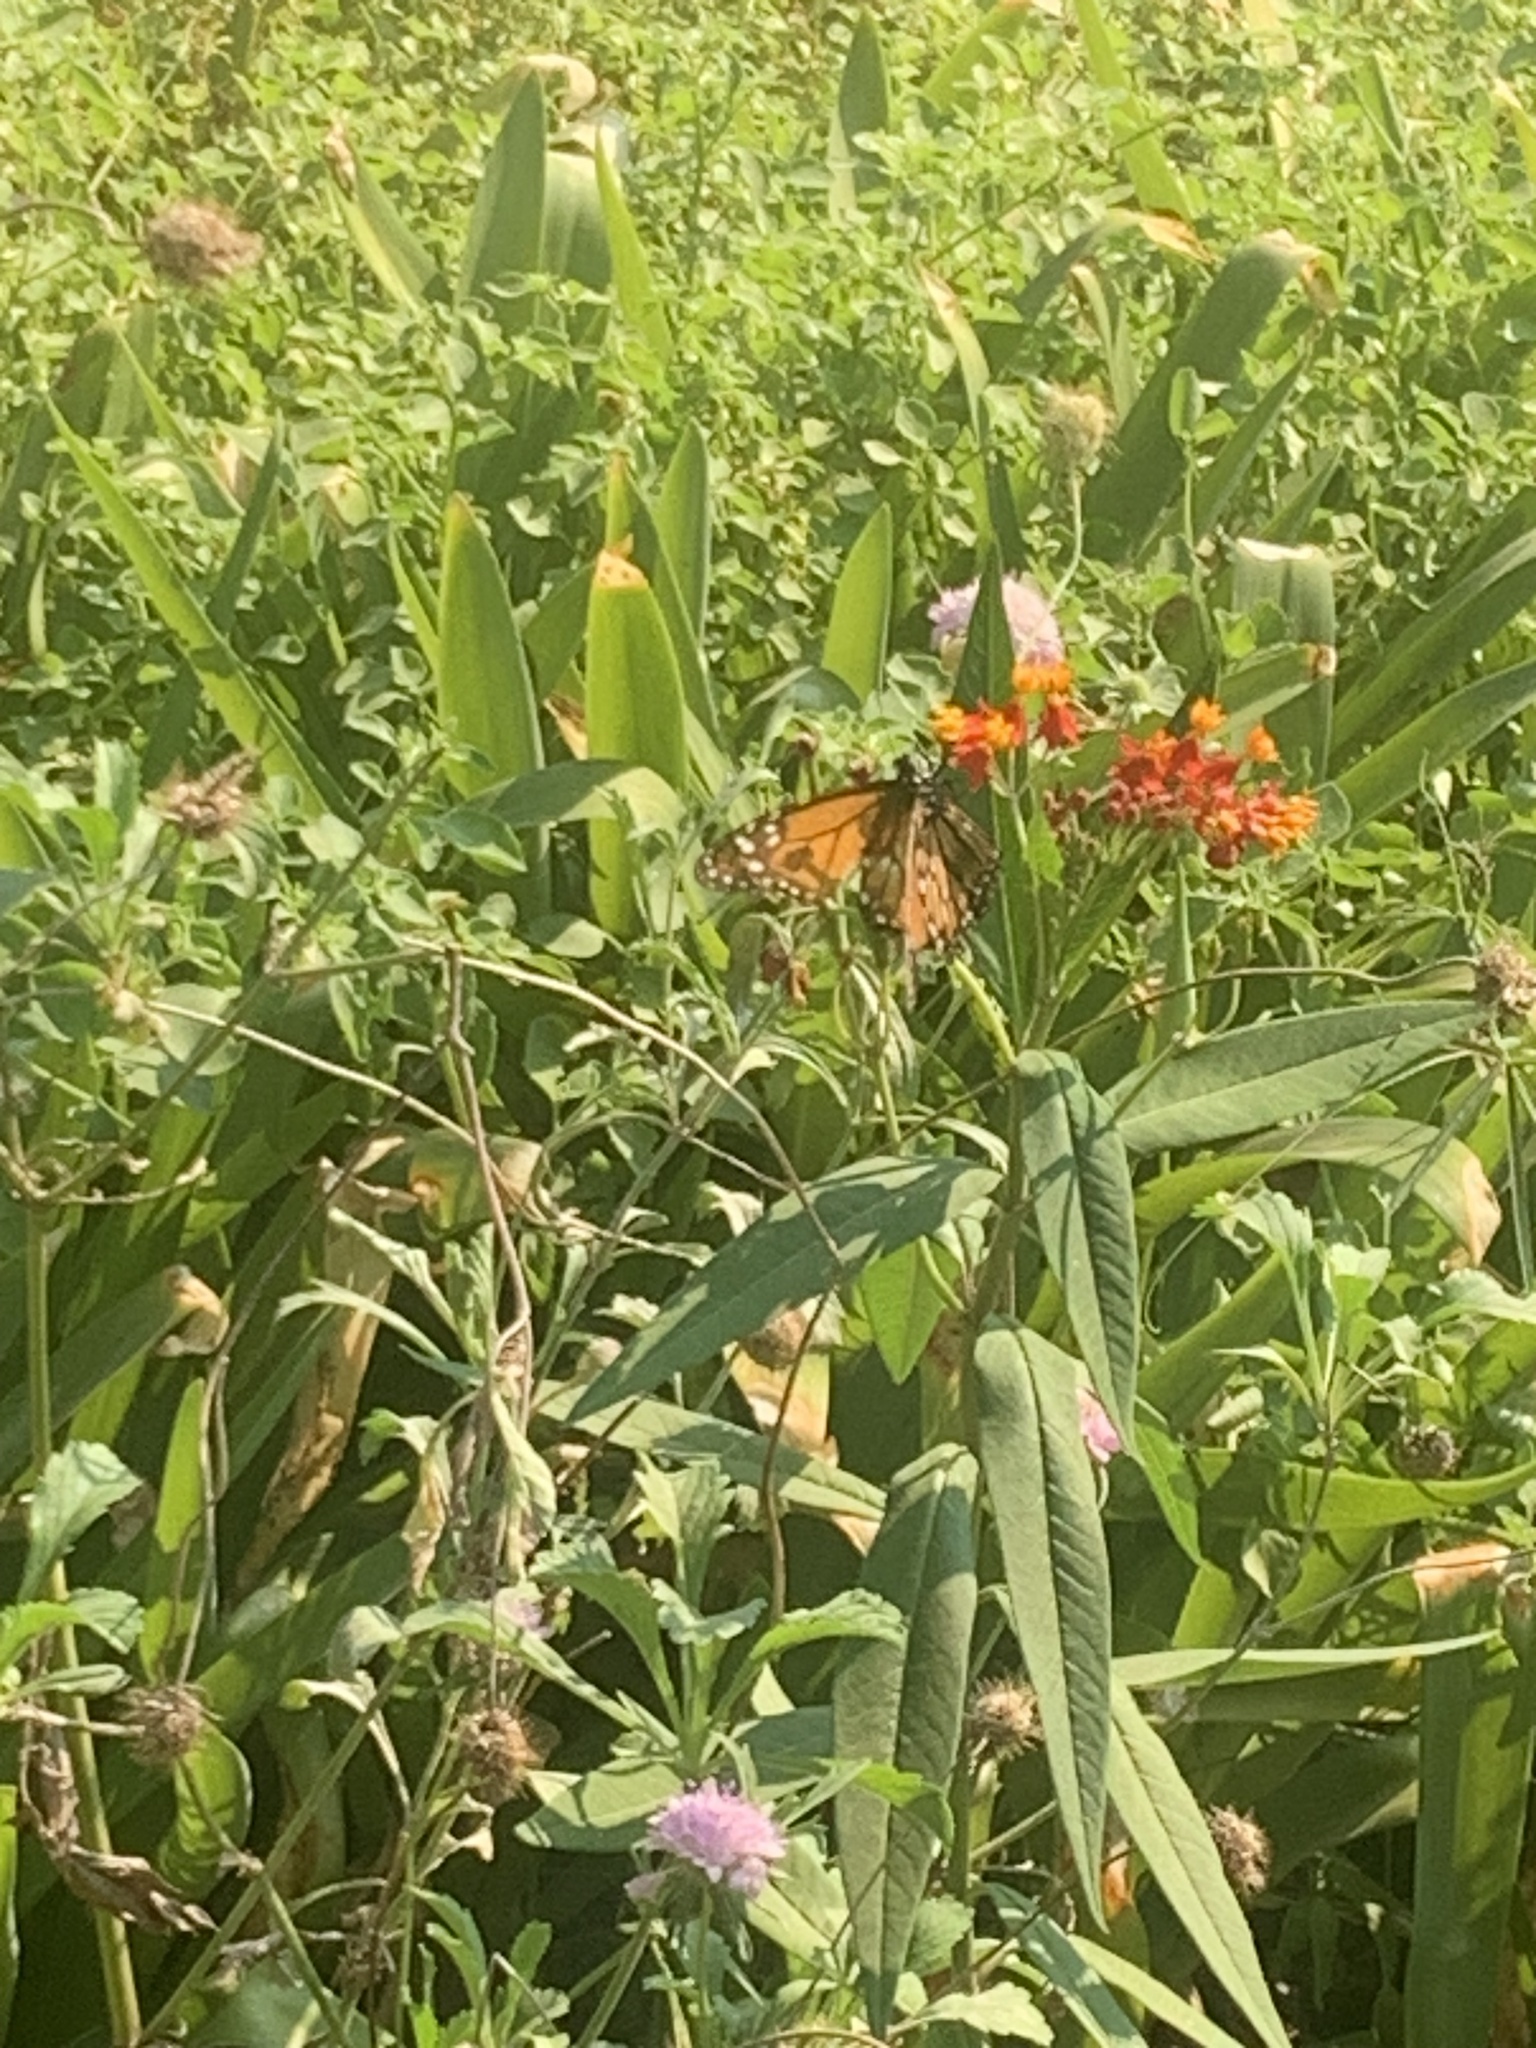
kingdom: Animalia
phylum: Arthropoda
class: Insecta
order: Lepidoptera
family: Nymphalidae
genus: Danaus
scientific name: Danaus erippus
